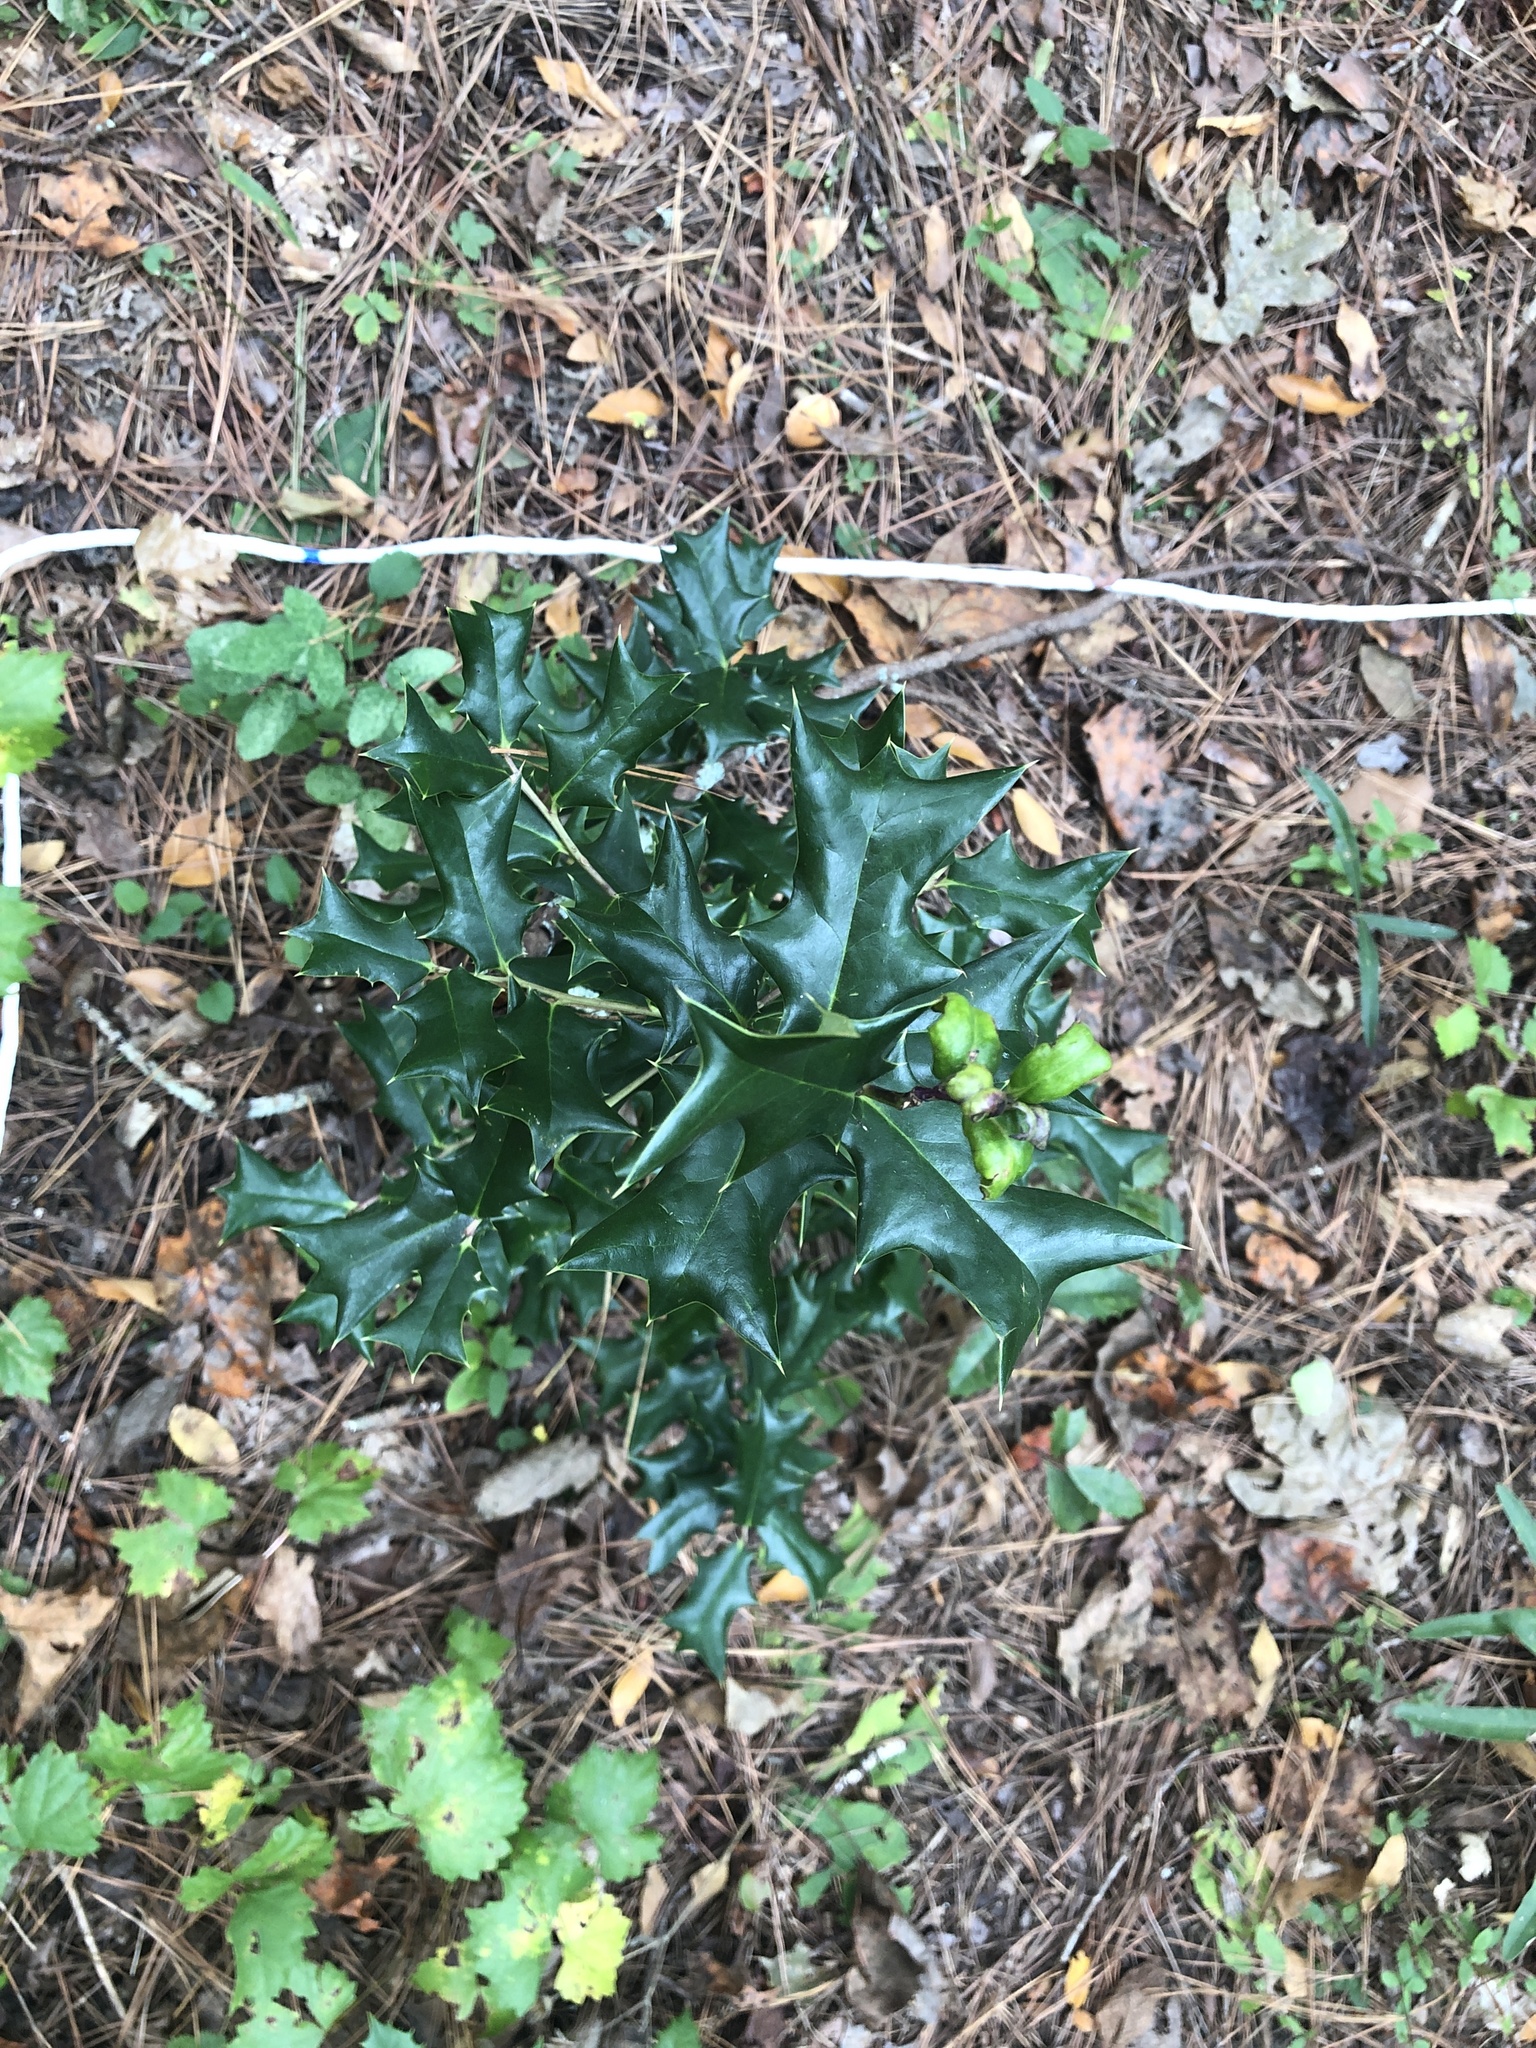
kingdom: Plantae
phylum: Tracheophyta
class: Magnoliopsida
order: Aquifoliales
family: Aquifoliaceae
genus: Ilex
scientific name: Ilex cornuta
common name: Chinese holly
